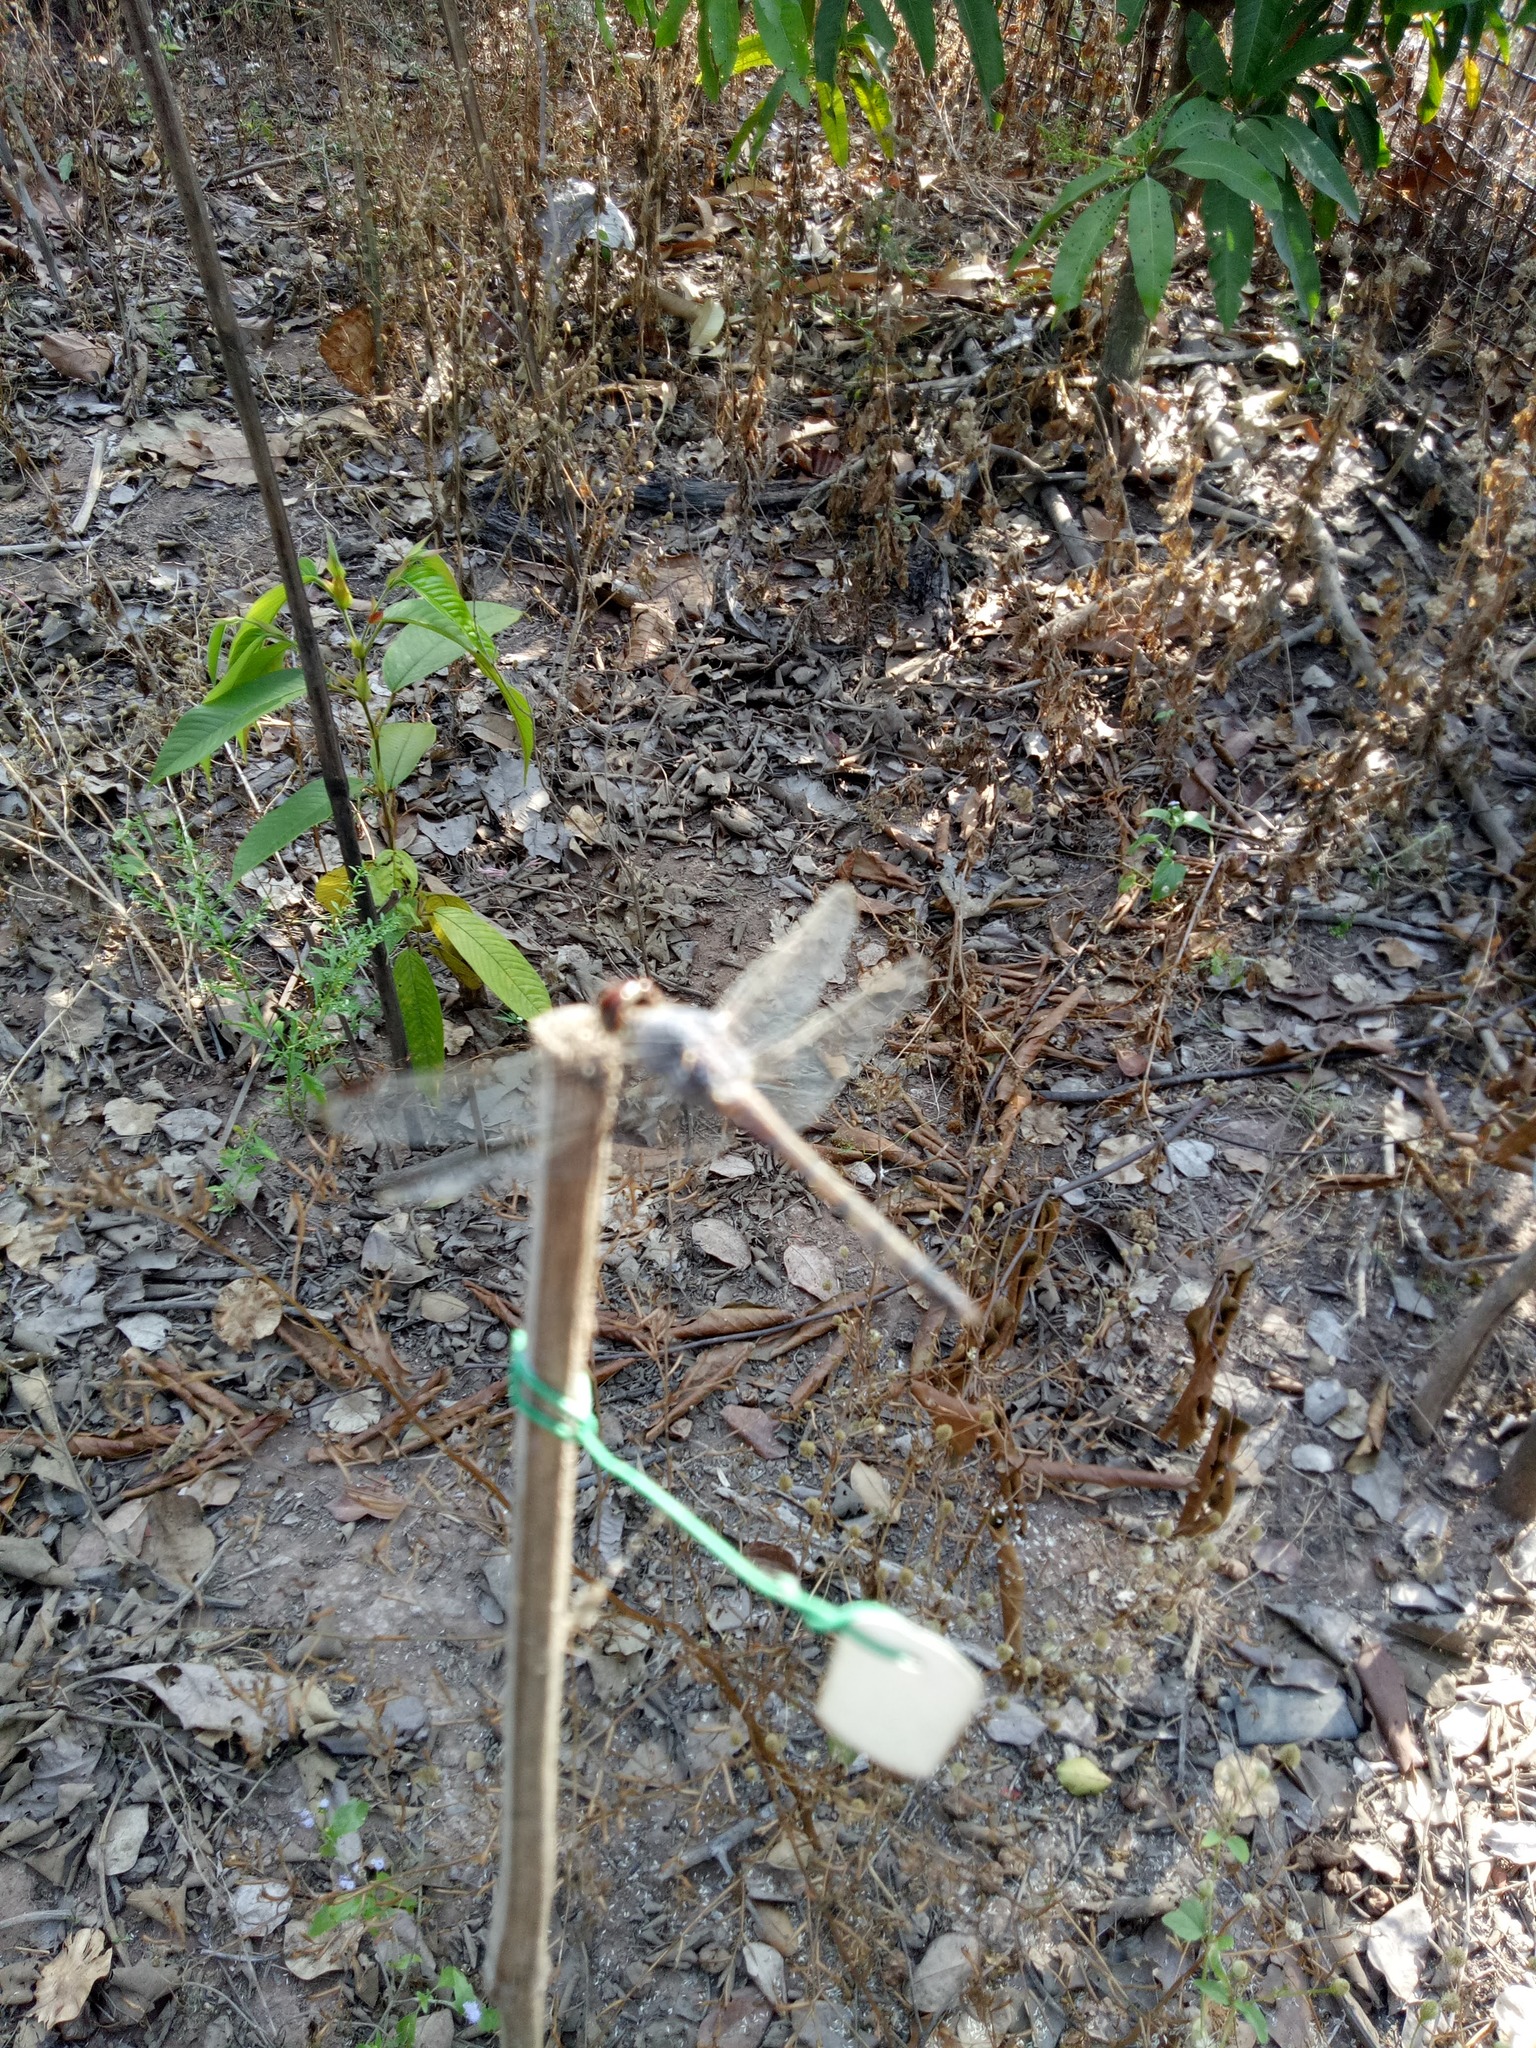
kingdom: Animalia
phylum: Arthropoda
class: Insecta
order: Odonata
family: Libellulidae
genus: Potamarcha
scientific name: Potamarcha congener
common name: Blue chaser
